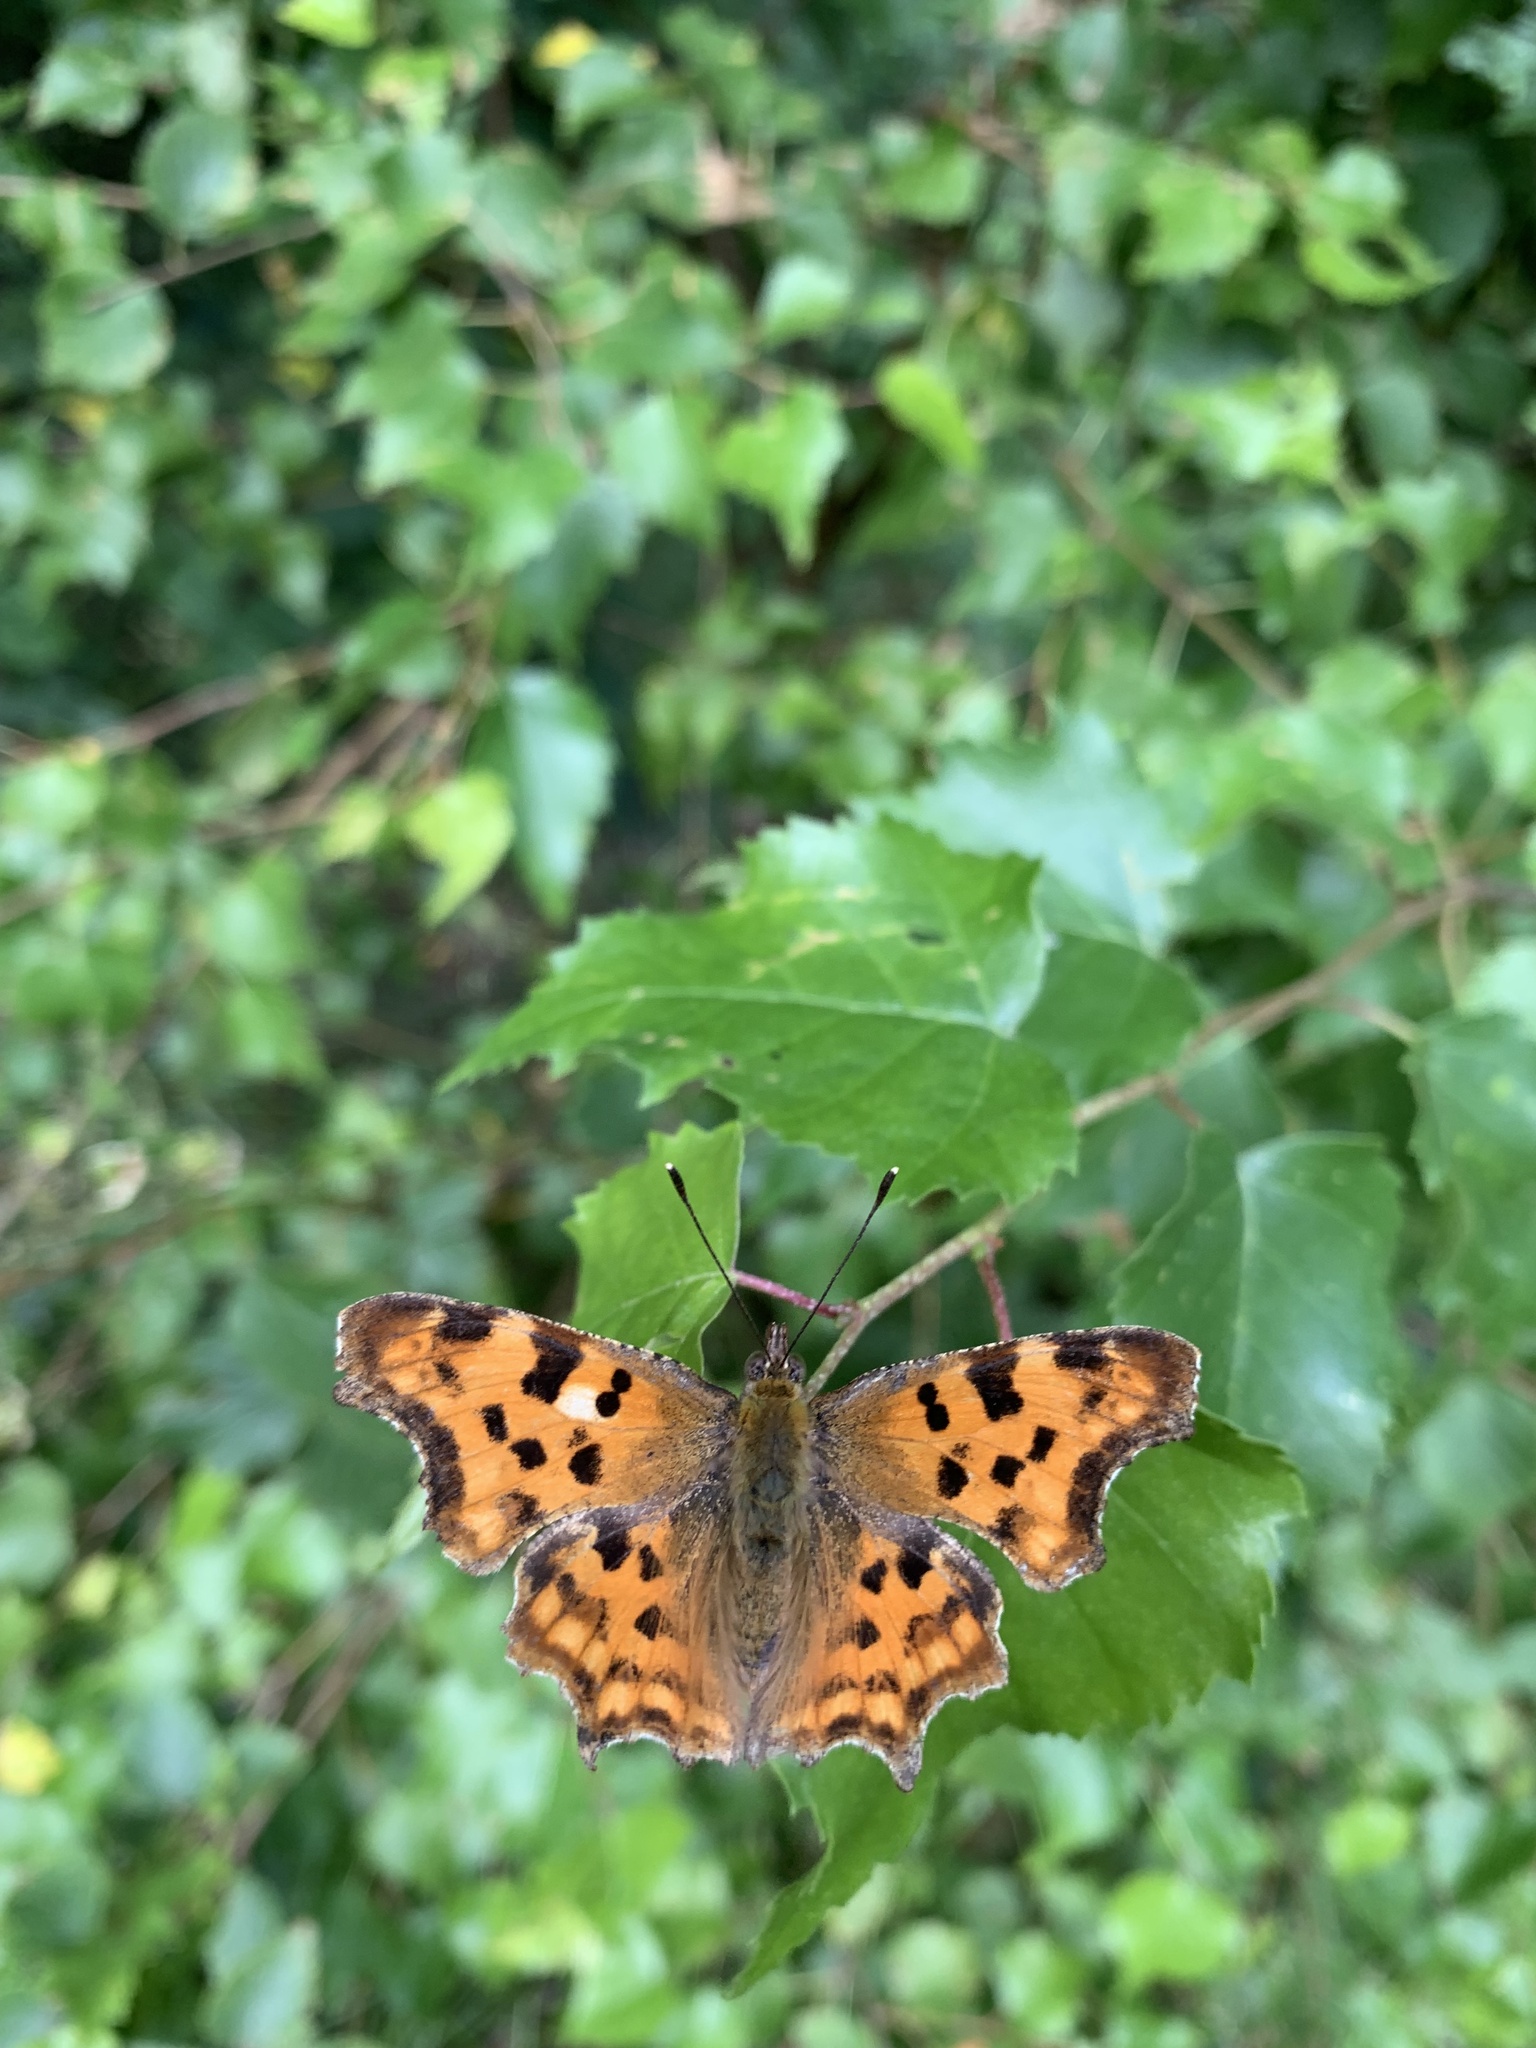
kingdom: Animalia
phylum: Arthropoda
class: Insecta
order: Lepidoptera
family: Nymphalidae
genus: Polygonia
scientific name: Polygonia c-album
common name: Comma
